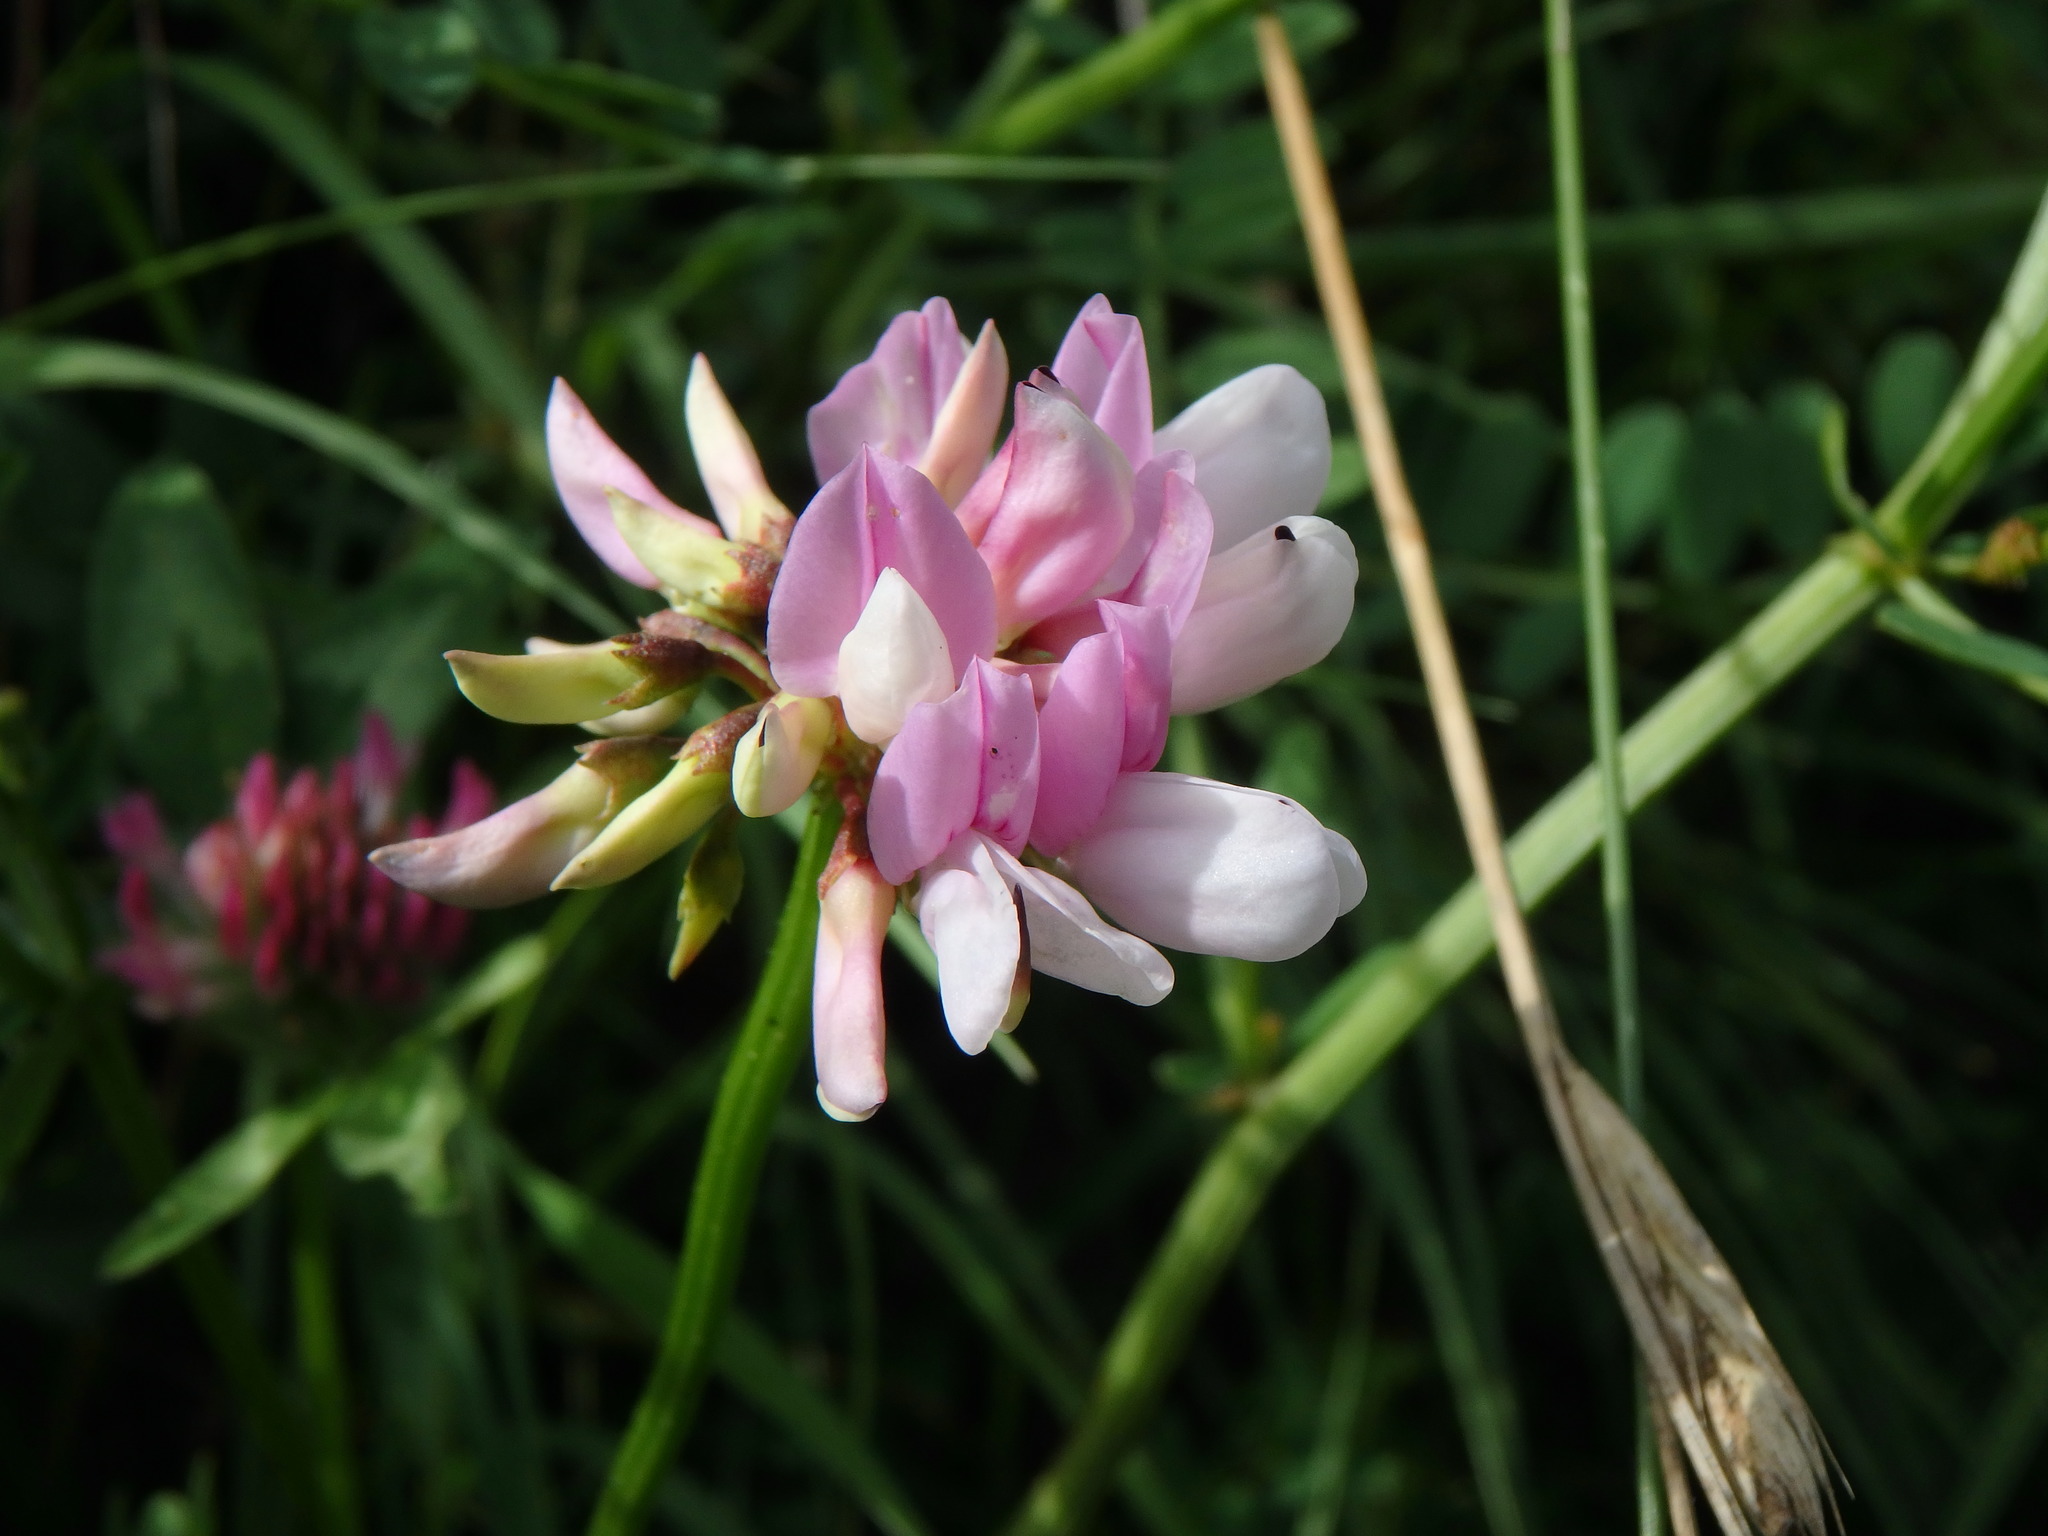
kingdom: Plantae
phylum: Tracheophyta
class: Magnoliopsida
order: Fabales
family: Fabaceae
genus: Coronilla
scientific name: Coronilla varia
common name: Crownvetch
